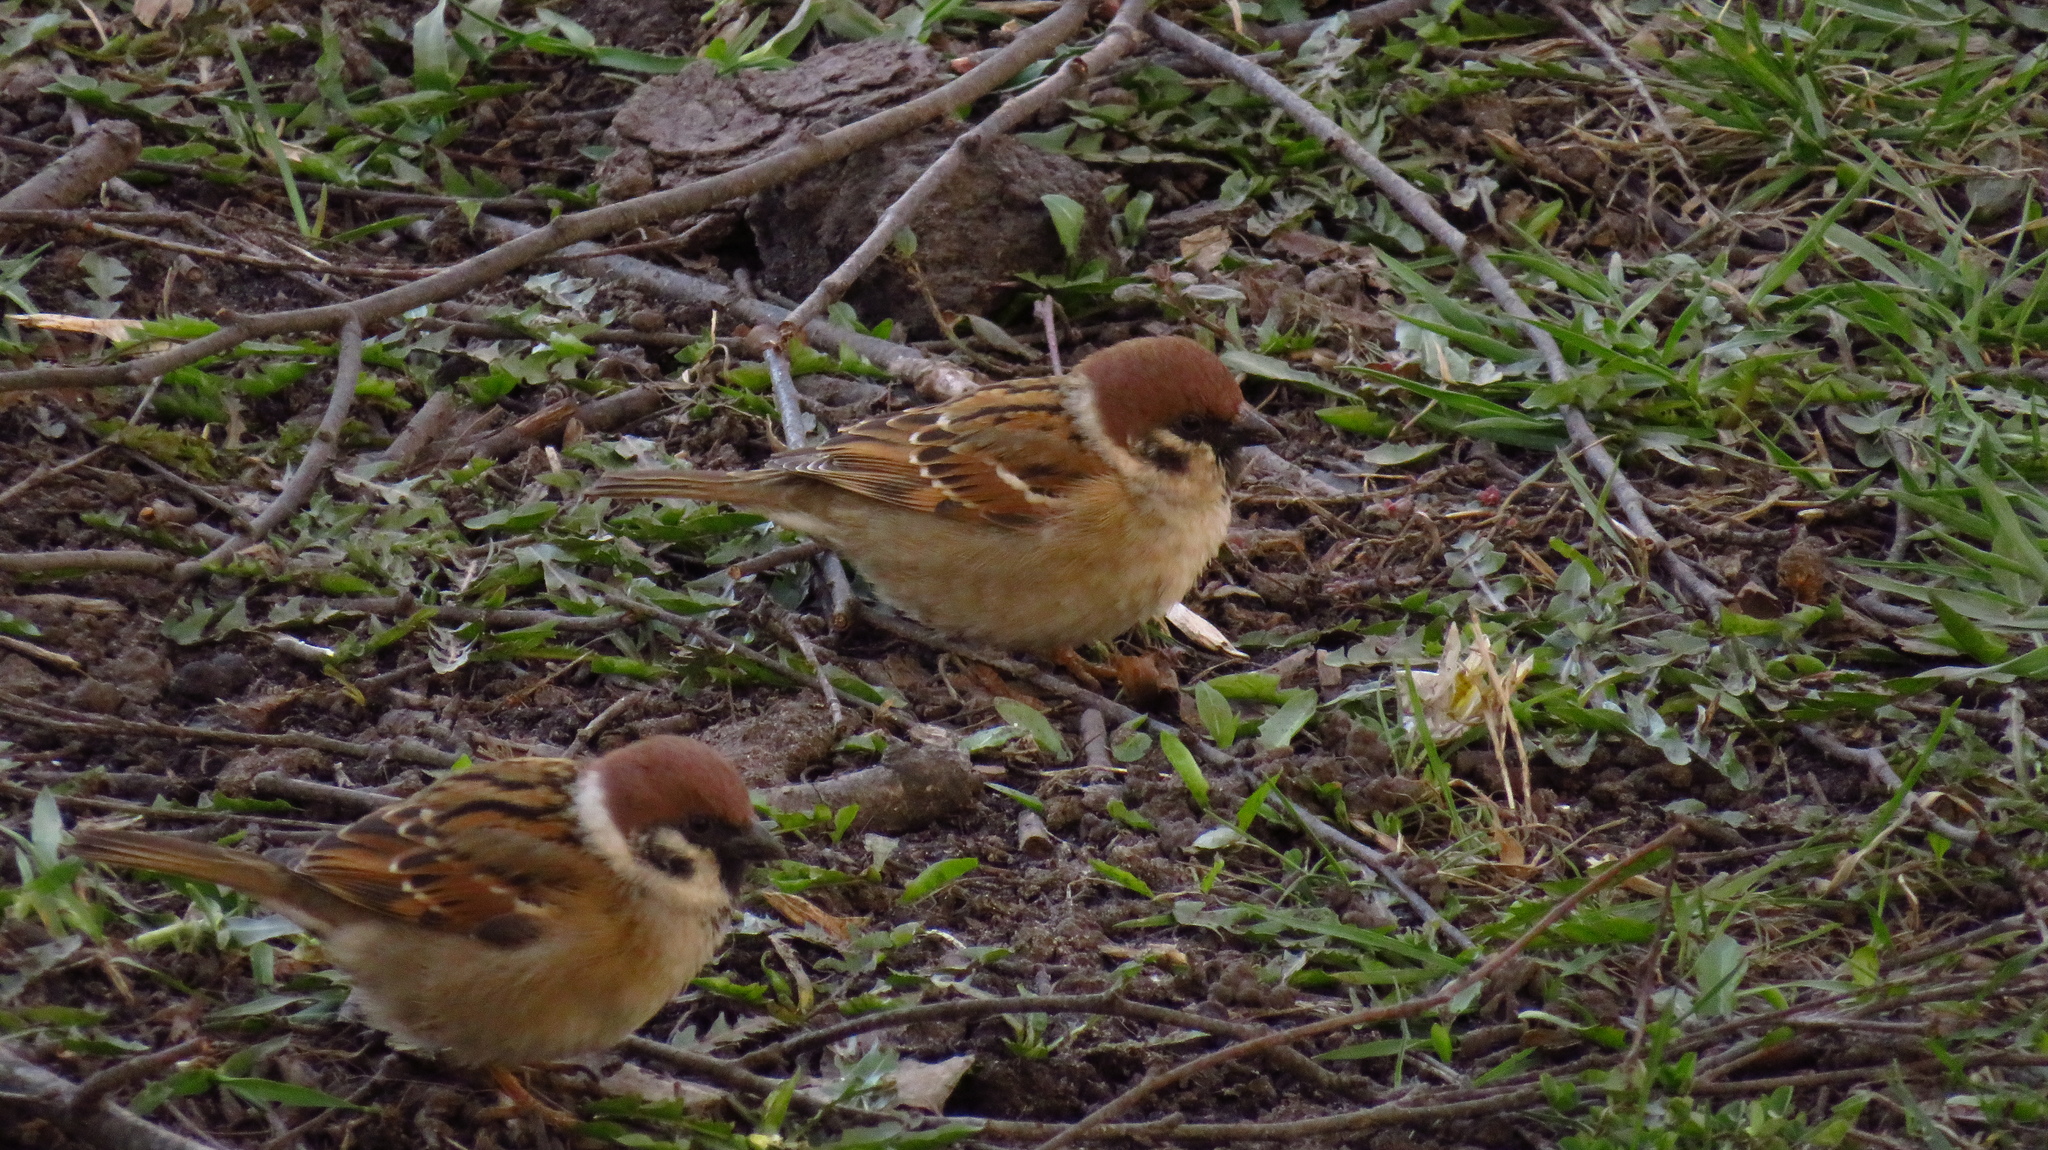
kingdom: Animalia
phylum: Chordata
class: Aves
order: Passeriformes
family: Passeridae
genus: Passer
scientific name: Passer montanus
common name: Eurasian tree sparrow
